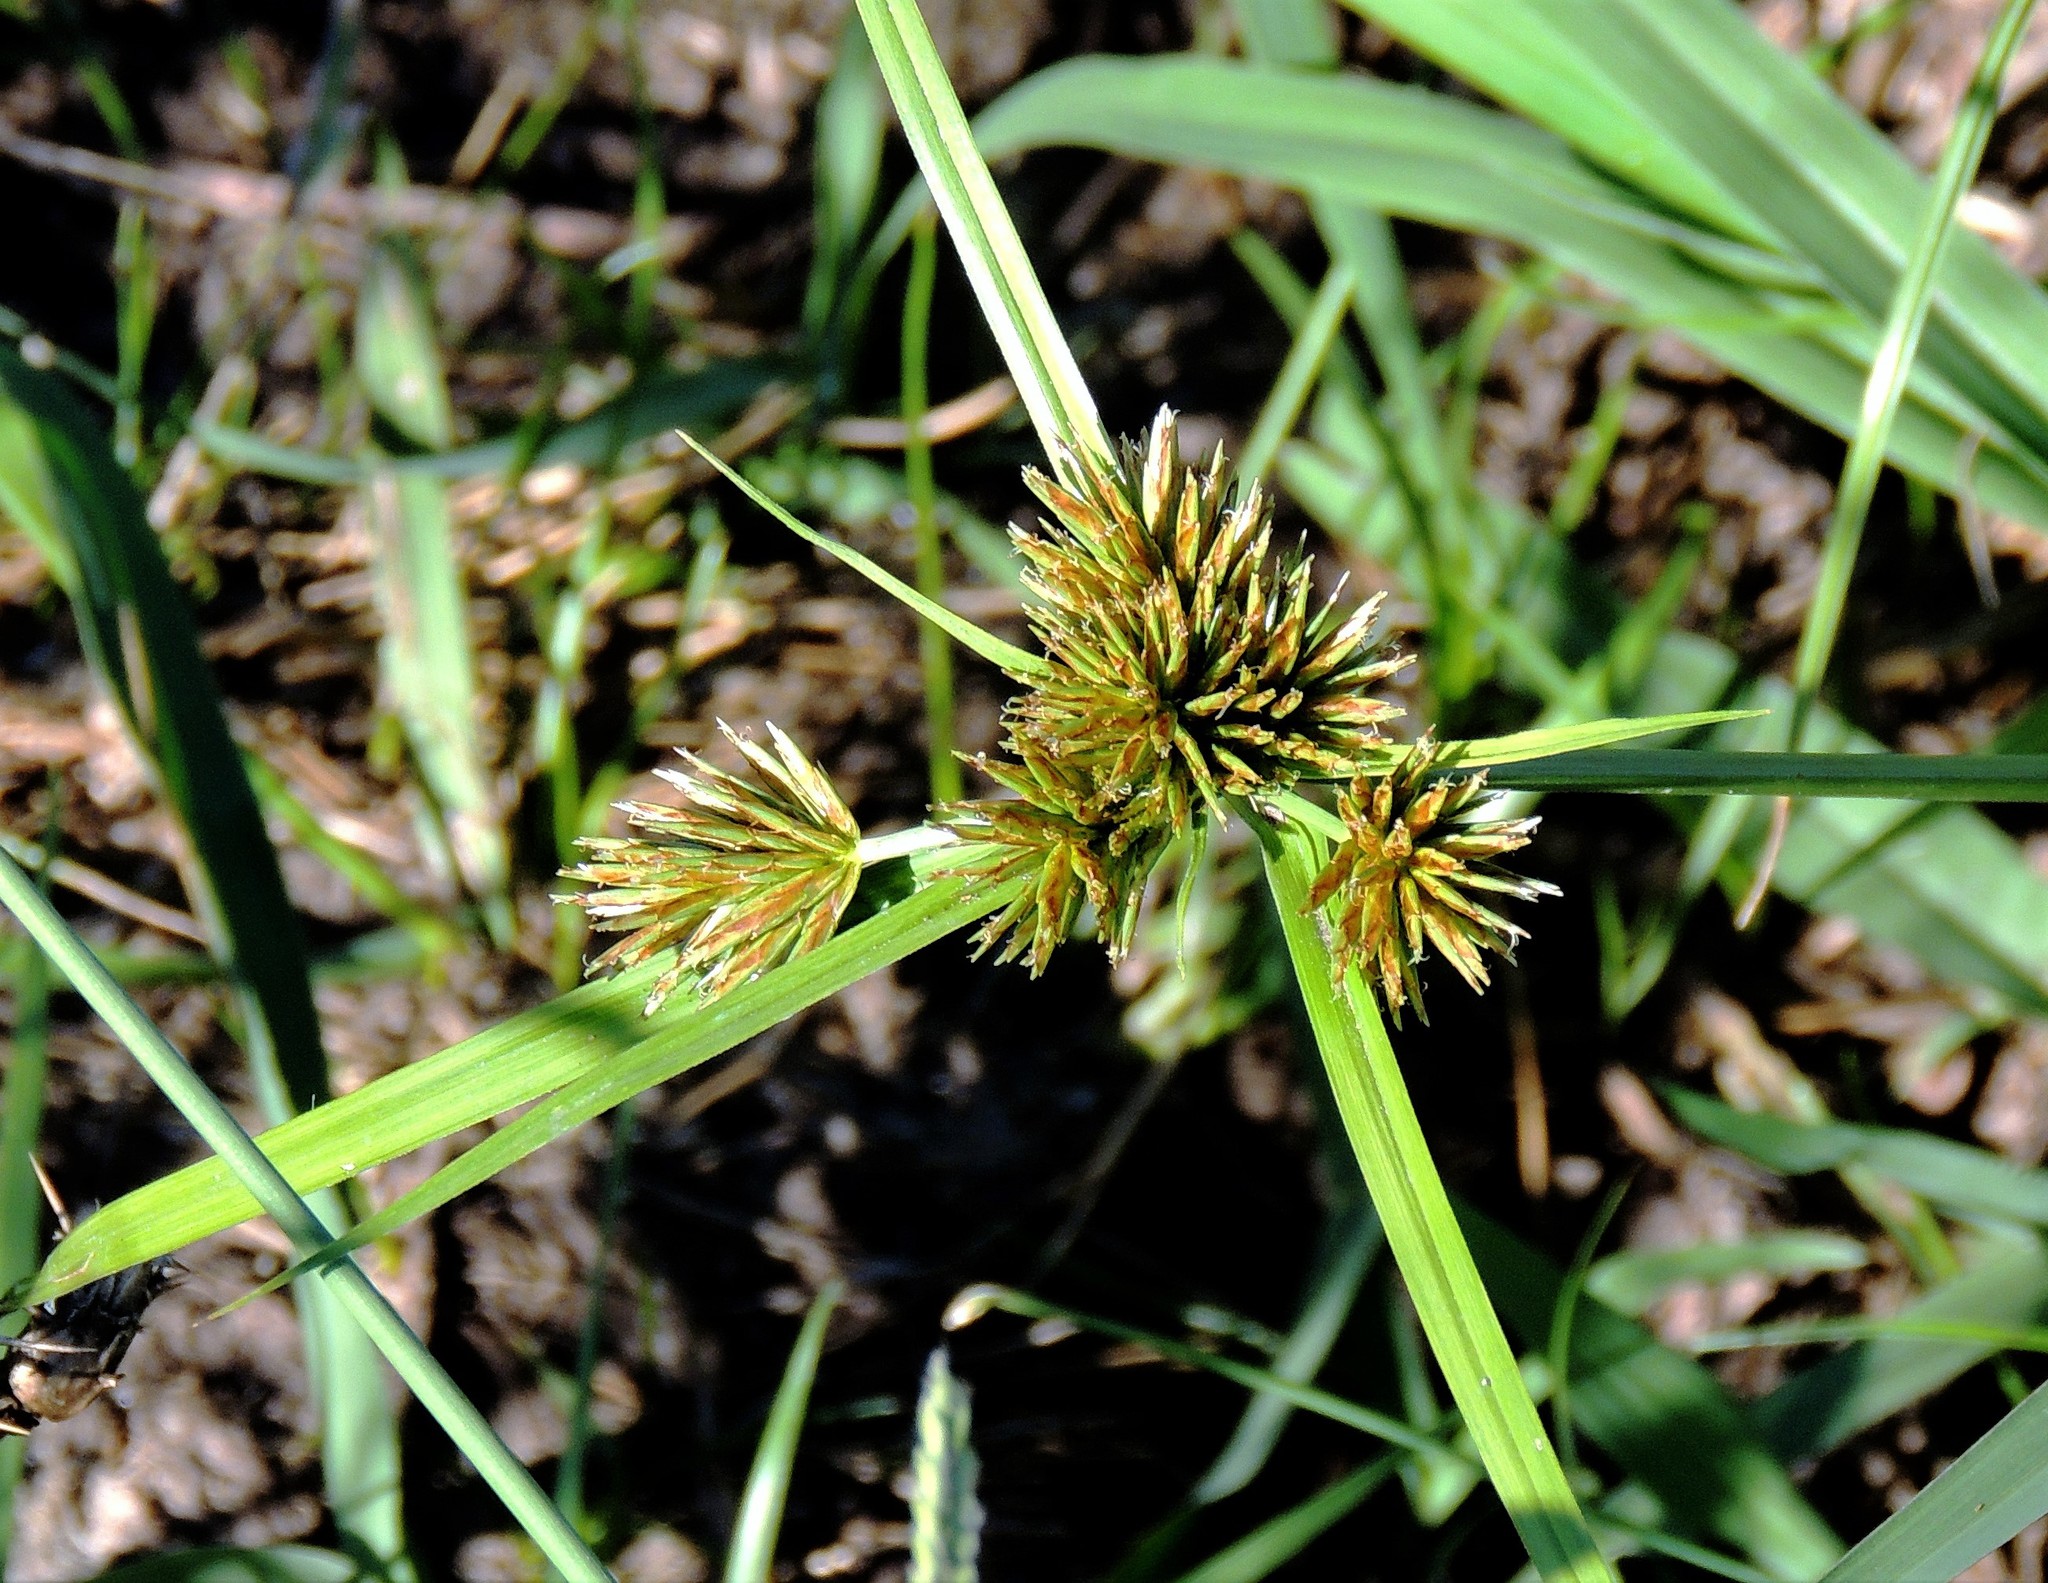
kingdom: Plantae
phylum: Tracheophyta
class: Liliopsida
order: Poales
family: Cyperaceae
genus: Cyperus
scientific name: Cyperus eragrostis
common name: Tall flatsedge
